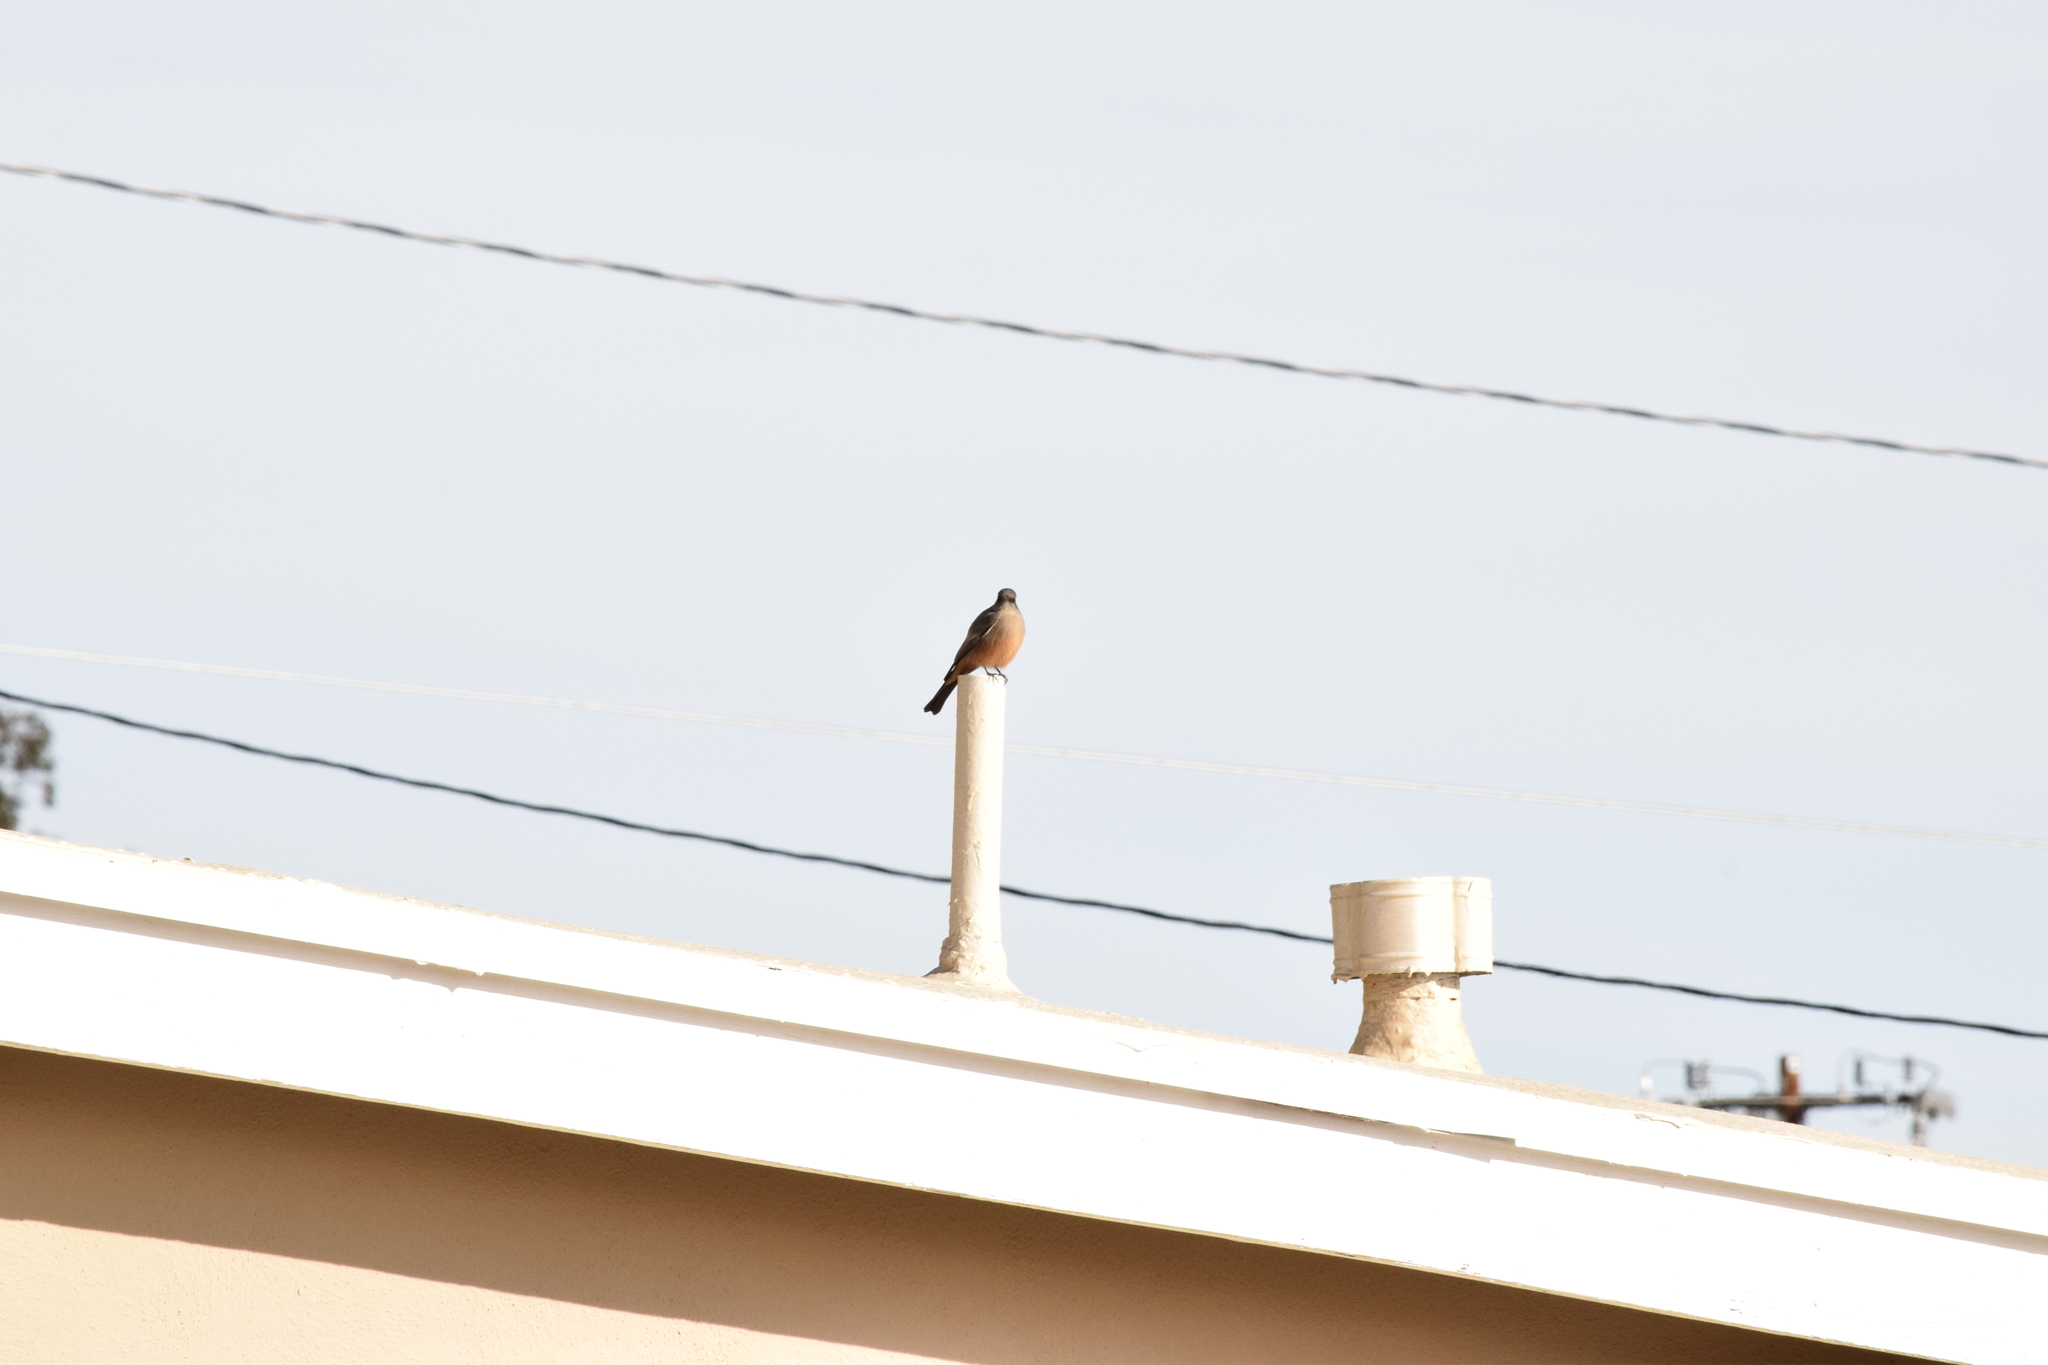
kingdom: Animalia
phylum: Chordata
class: Aves
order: Passeriformes
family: Tyrannidae
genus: Sayornis
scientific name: Sayornis saya
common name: Say's phoebe
